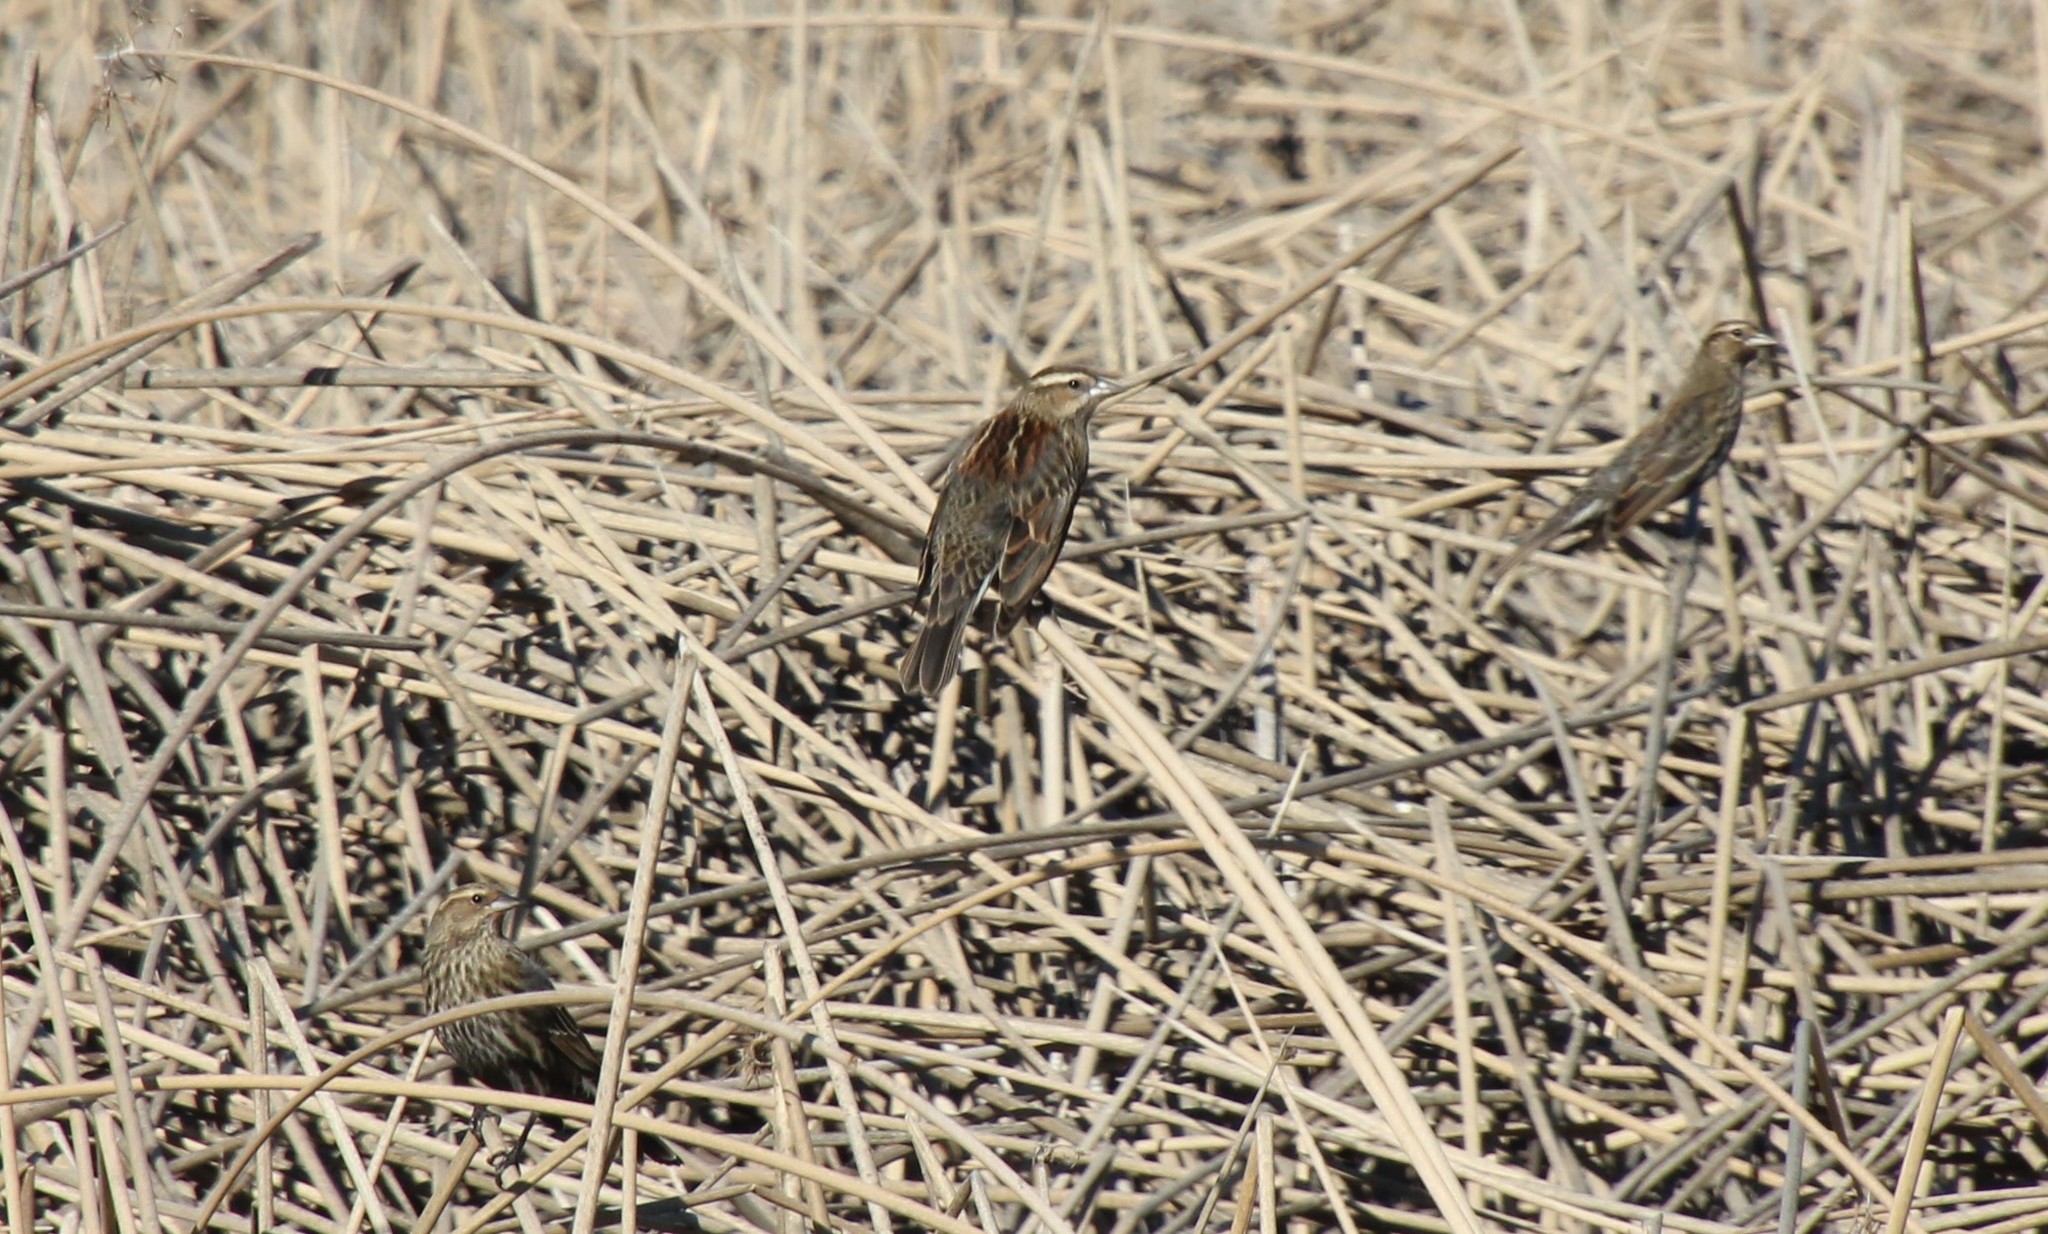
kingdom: Animalia
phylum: Chordata
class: Aves
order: Passeriformes
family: Icteridae
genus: Agelaius
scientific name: Agelaius phoeniceus
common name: Red-winged blackbird
